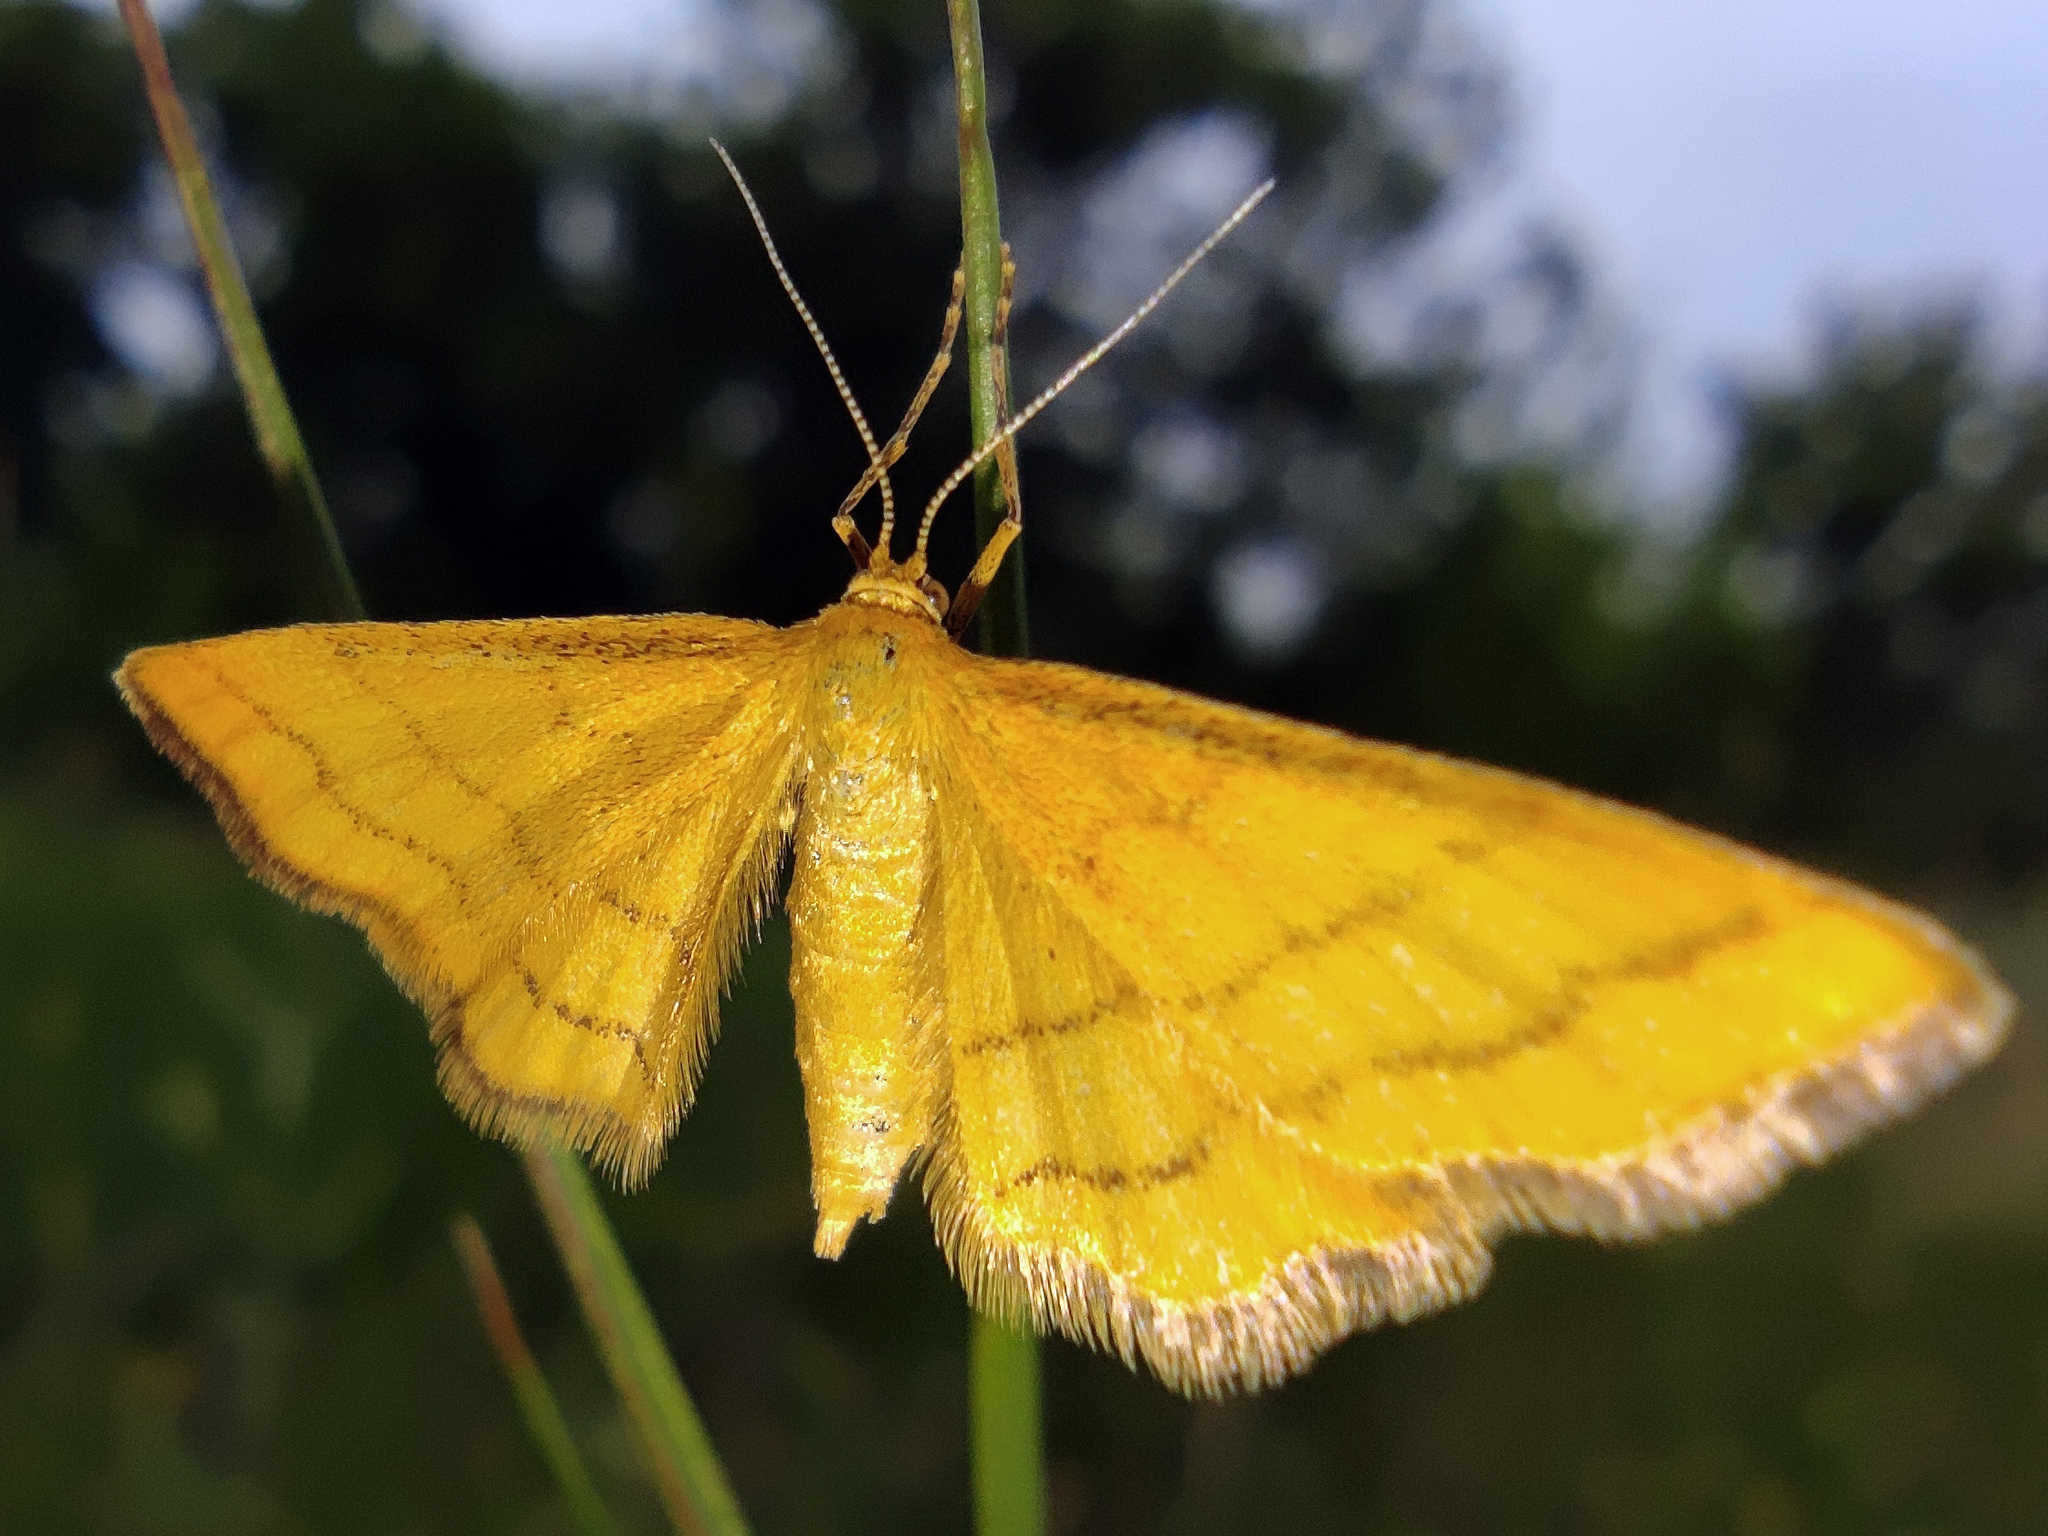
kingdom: Animalia
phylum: Arthropoda
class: Insecta
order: Lepidoptera
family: Geometridae
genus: Idaea
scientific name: Idaea aureolaria
